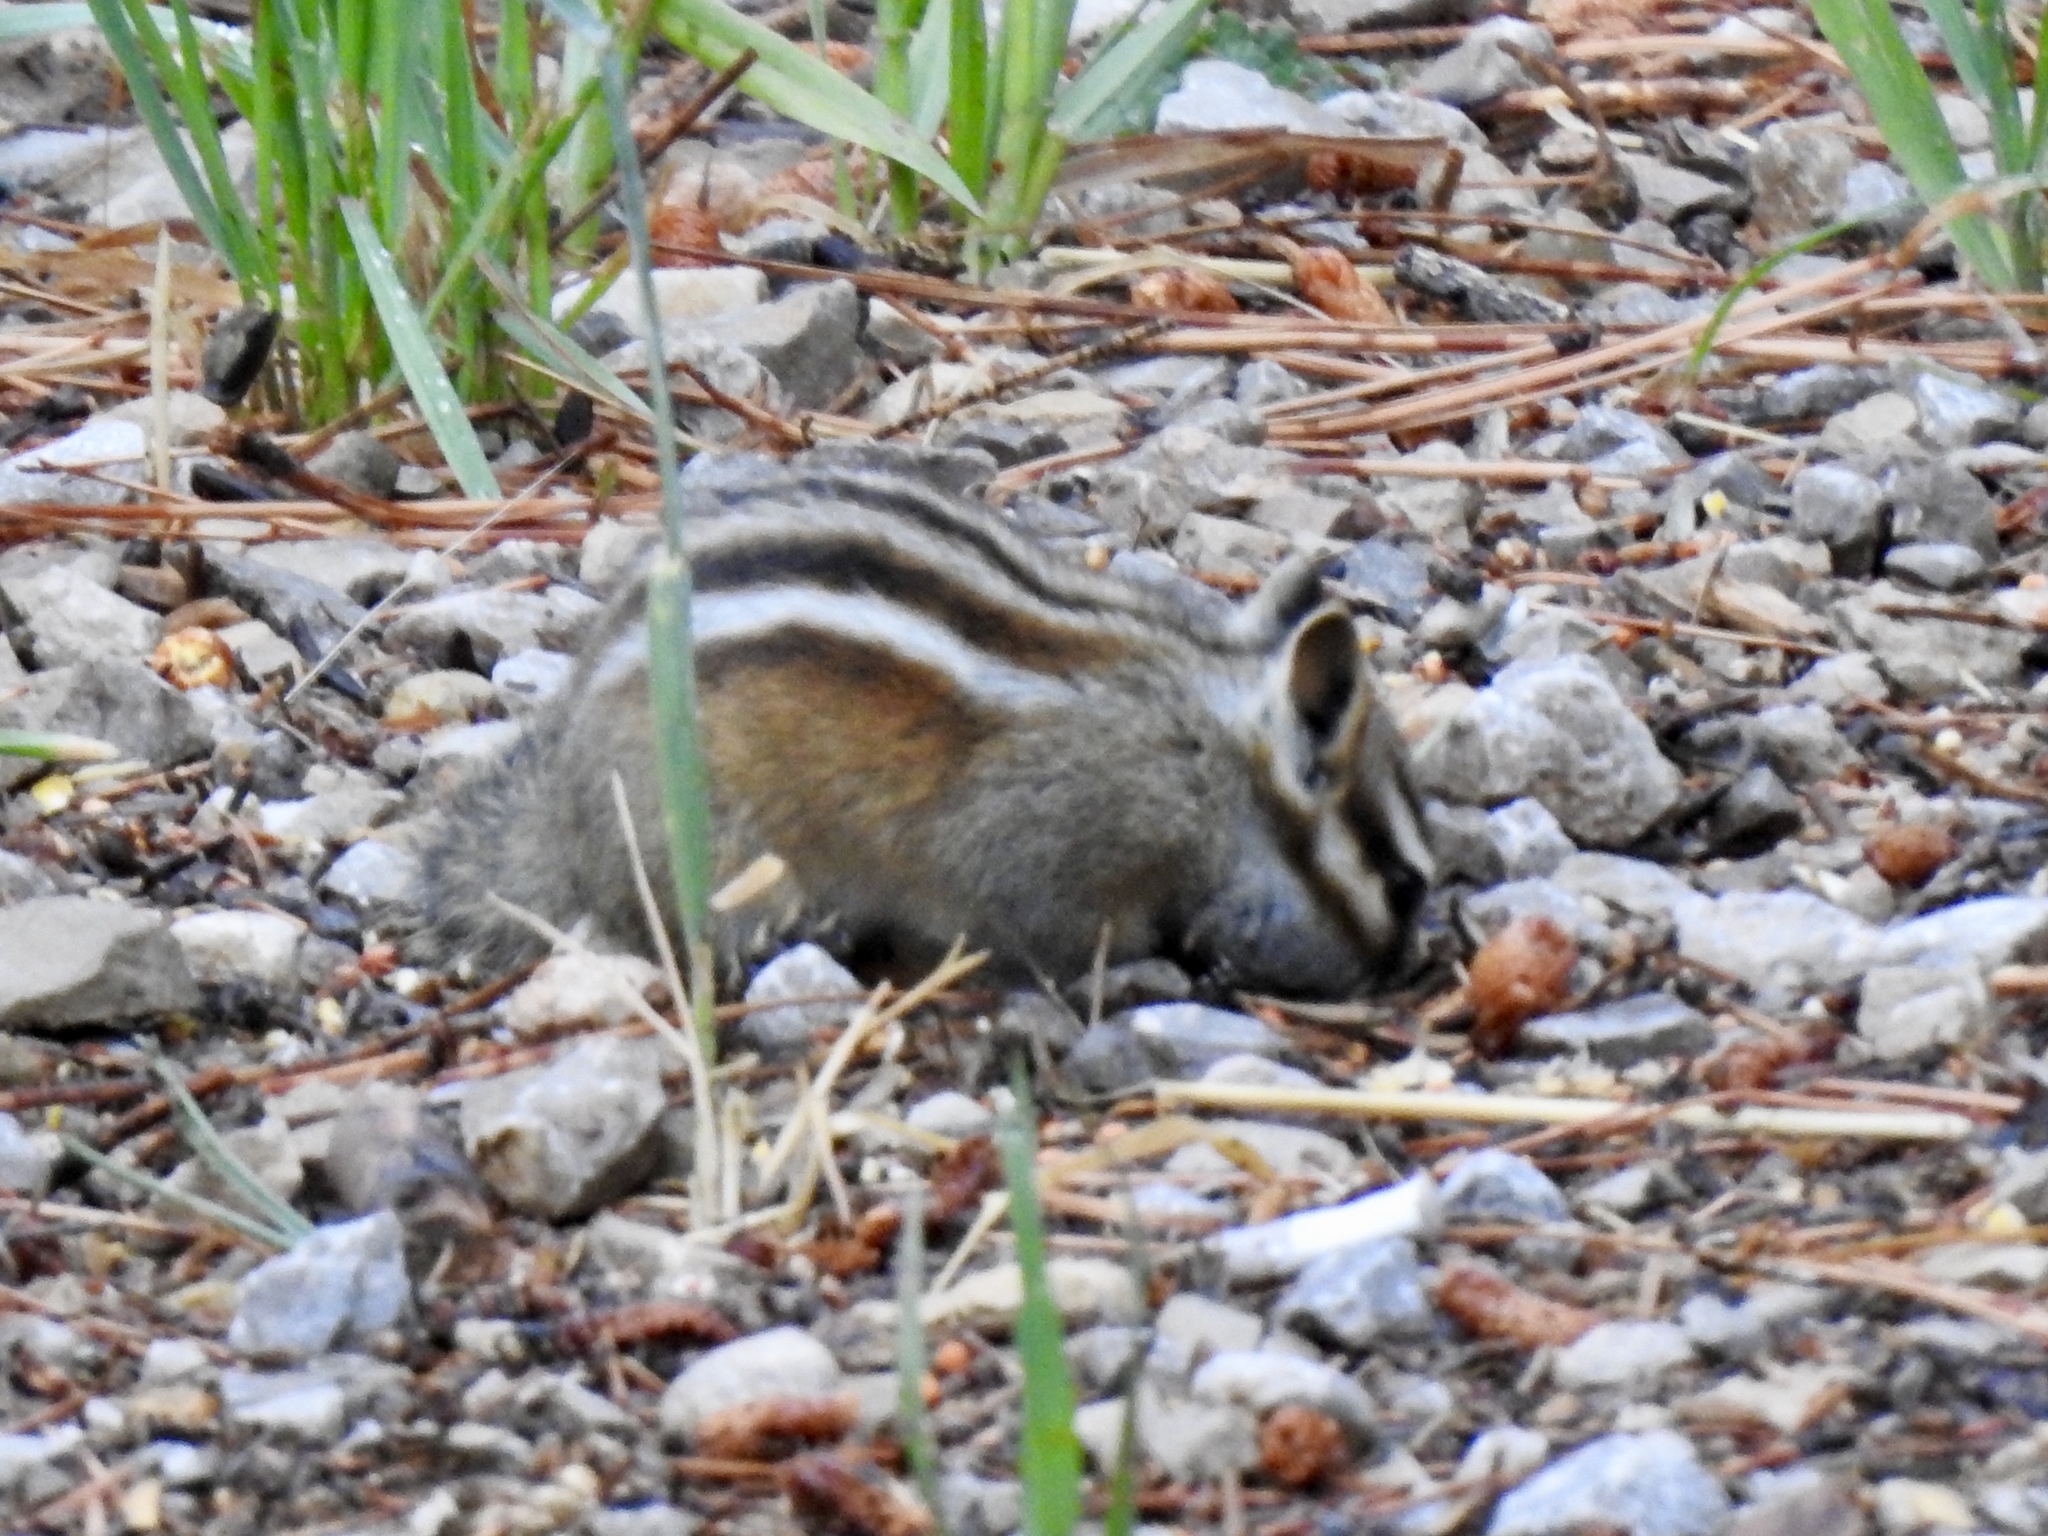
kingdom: Animalia
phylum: Chordata
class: Mammalia
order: Rodentia
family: Sciuridae
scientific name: Sciuridae
